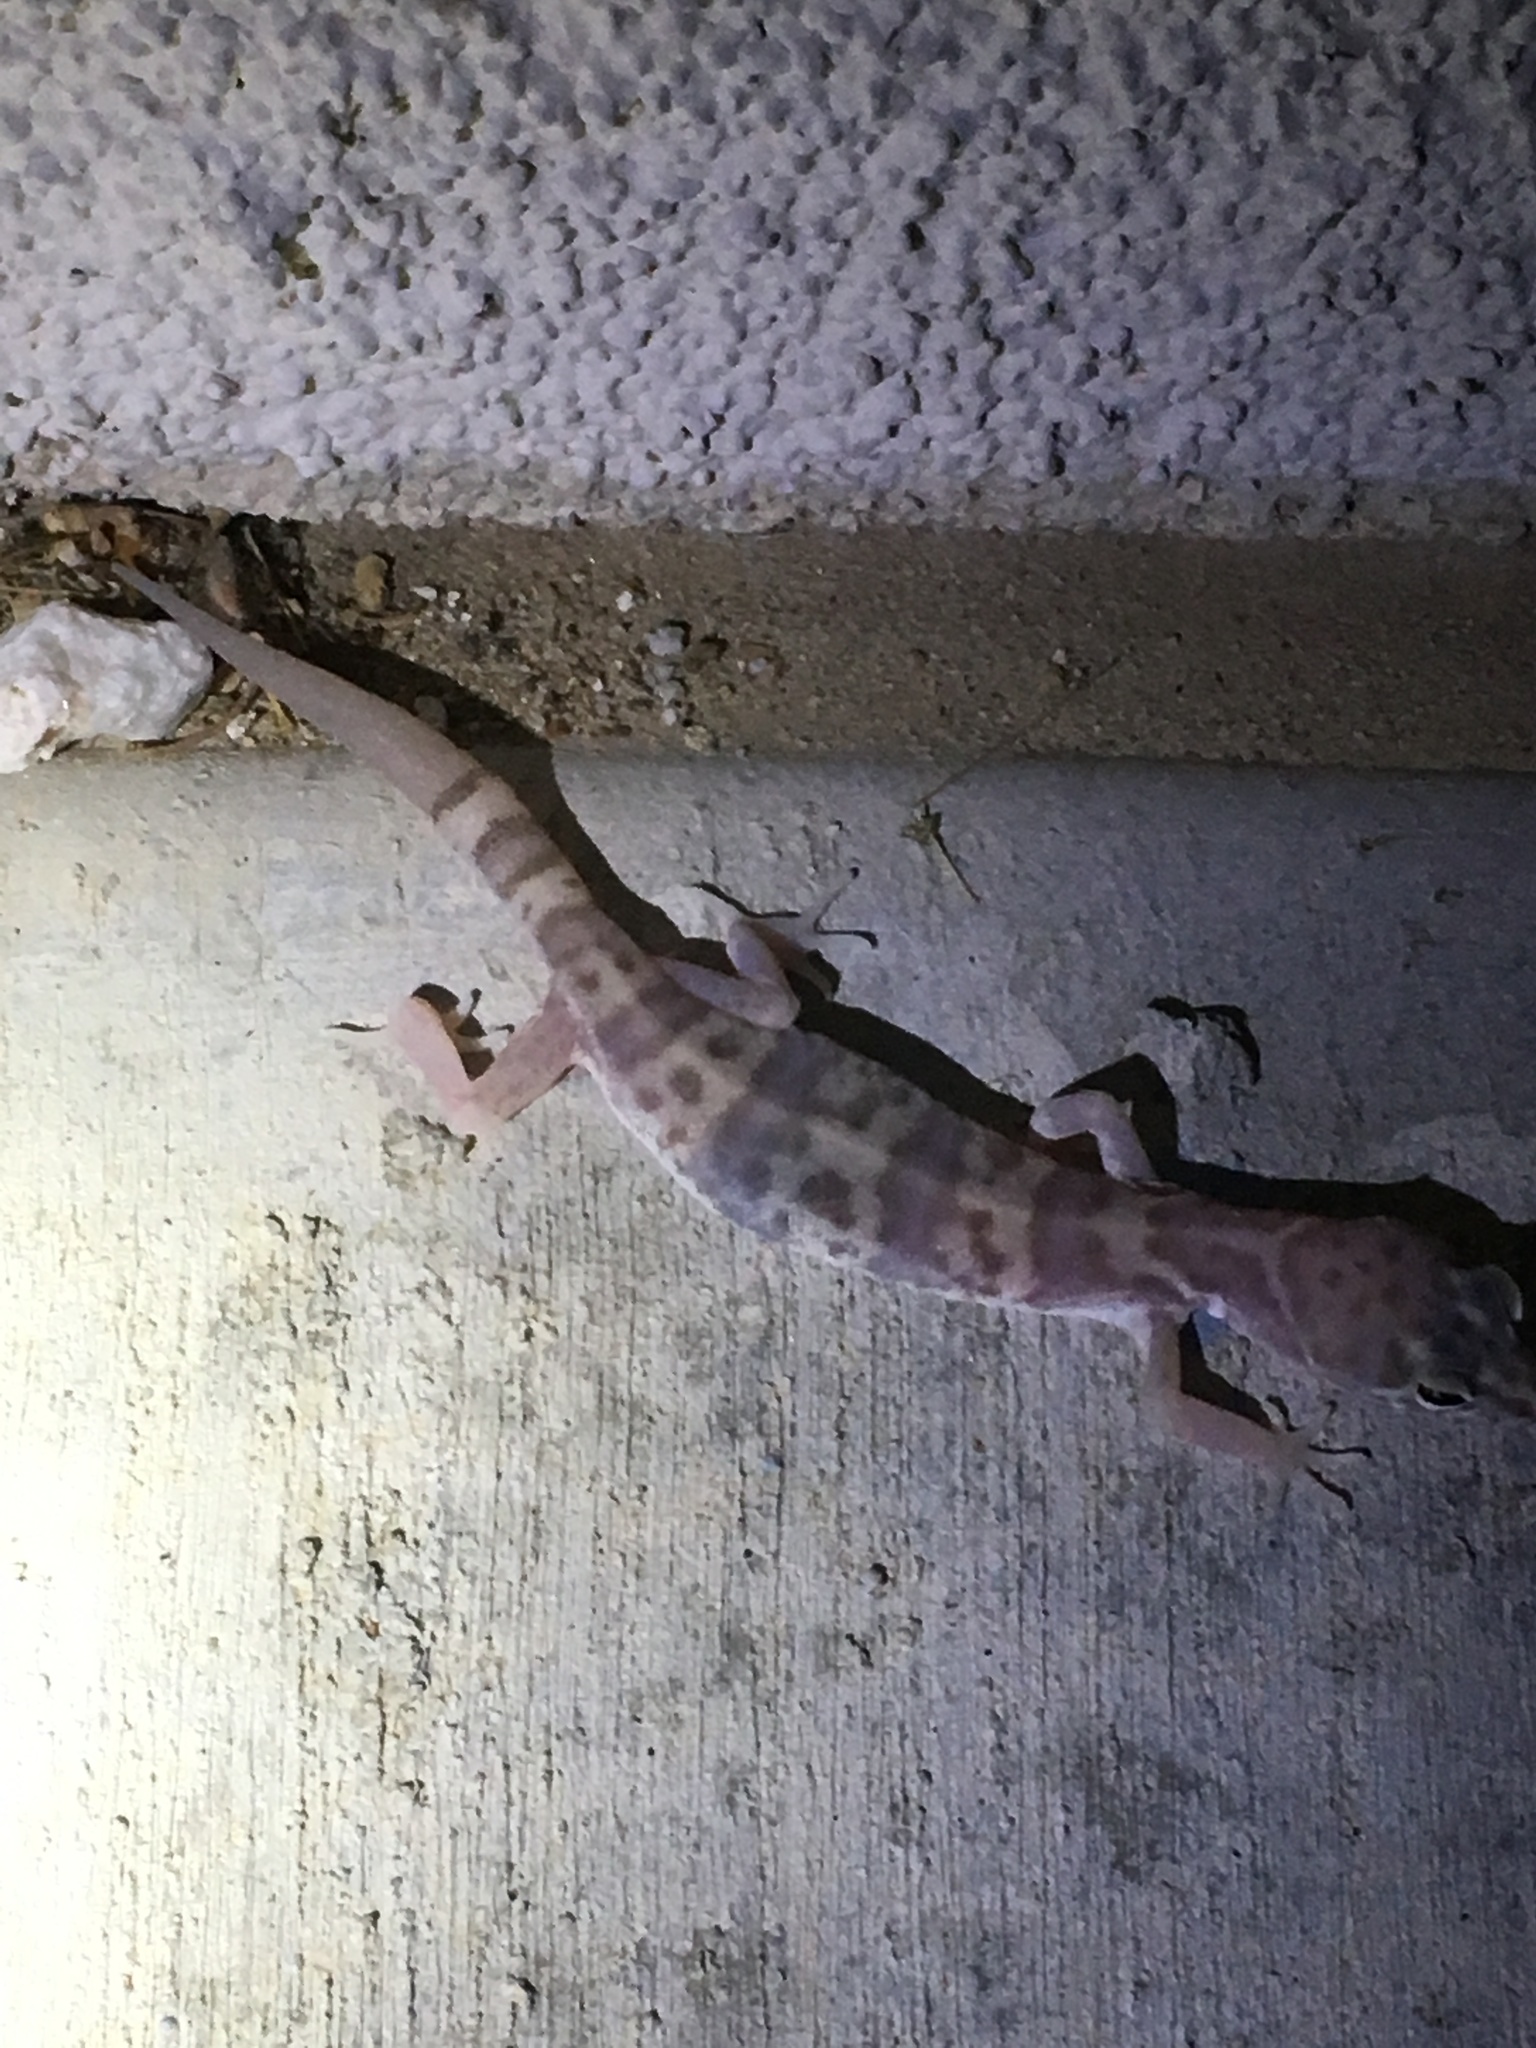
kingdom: Animalia
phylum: Chordata
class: Squamata
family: Eublepharidae
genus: Coleonyx
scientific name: Coleonyx variegatus
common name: Western banded gecko
